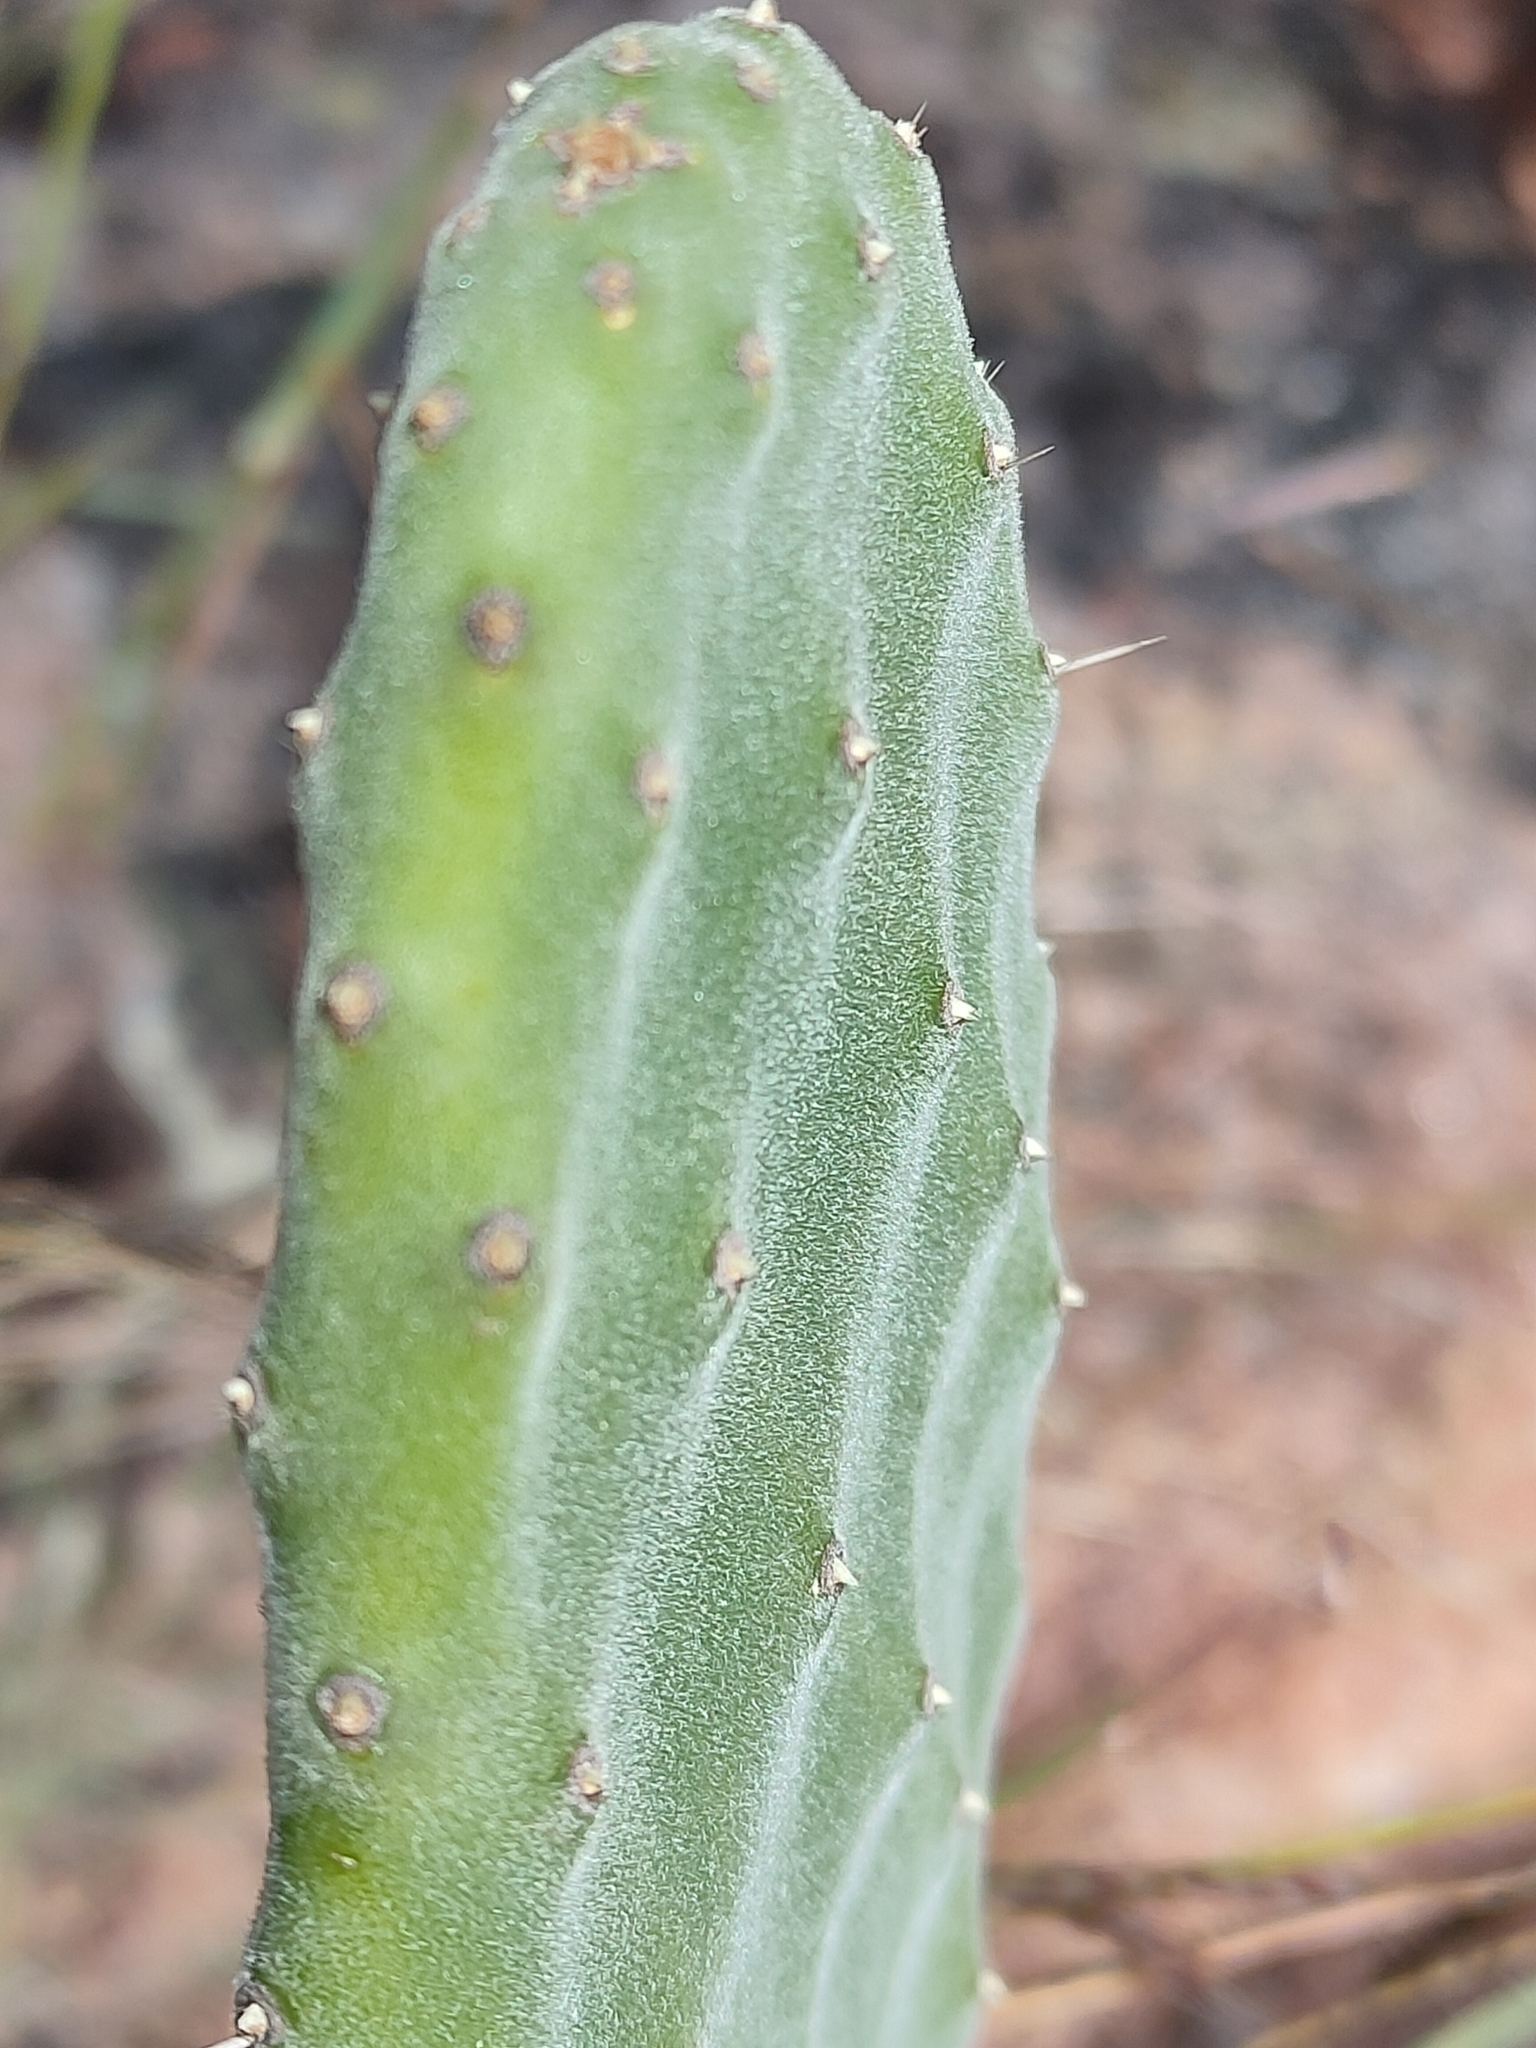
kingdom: Plantae
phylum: Tracheophyta
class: Magnoliopsida
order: Caryophyllales
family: Cactaceae
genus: Opuntia
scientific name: Opuntia tomentosa
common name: Woollyjoint pricklypear
